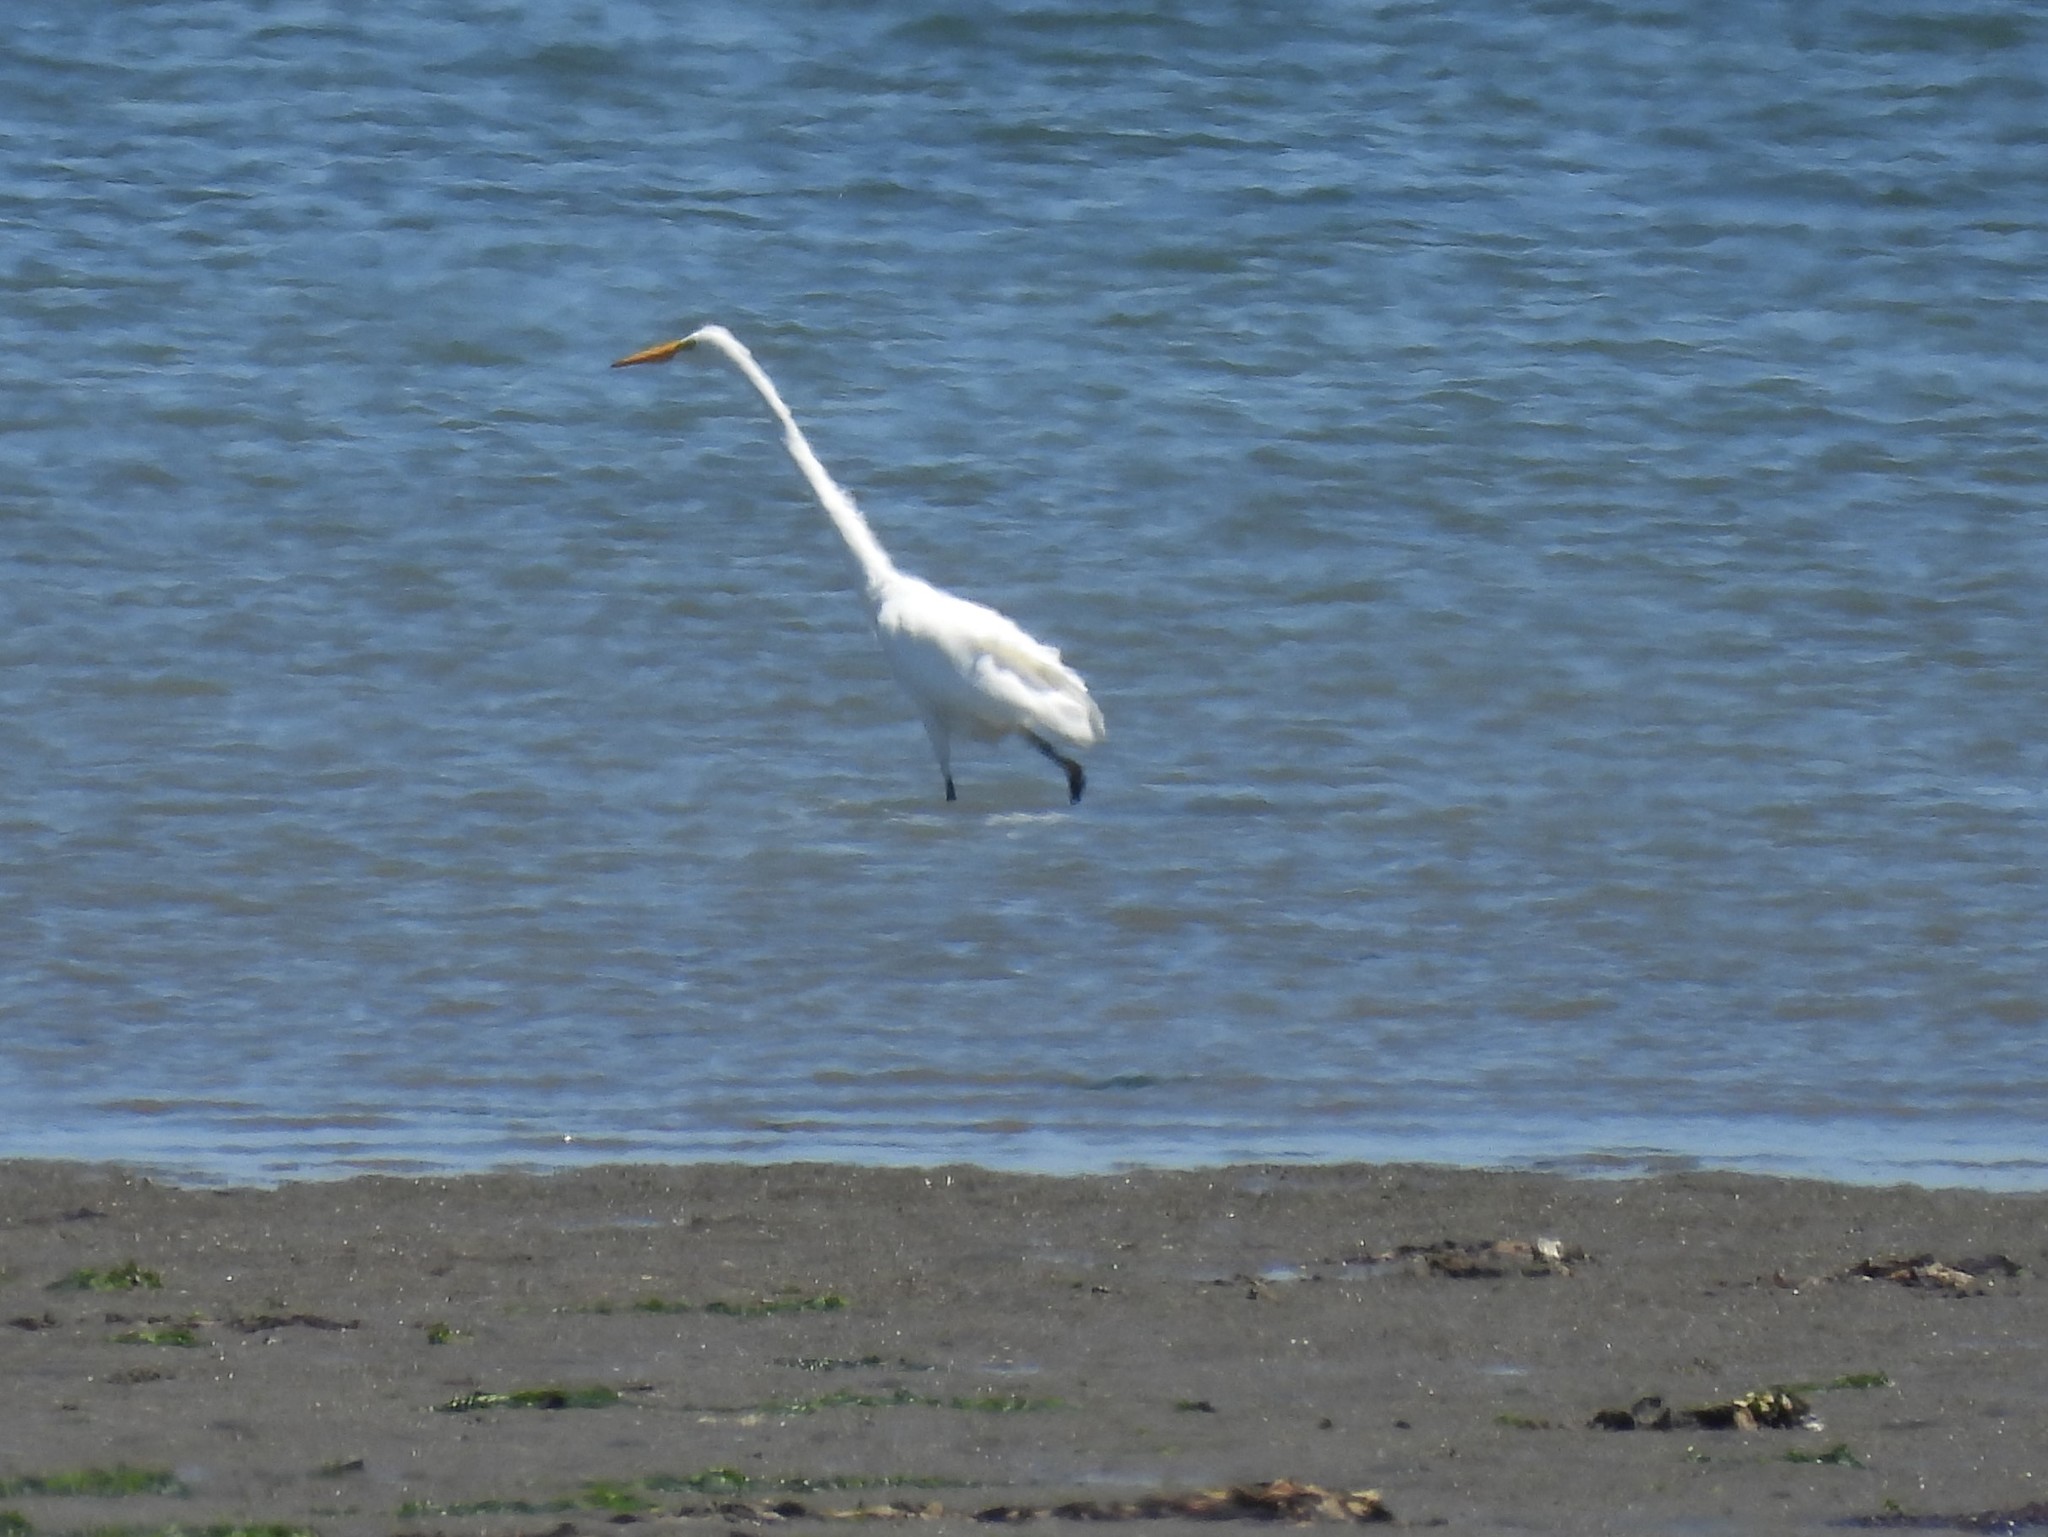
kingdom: Animalia
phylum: Chordata
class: Aves
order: Pelecaniformes
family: Ardeidae
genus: Ardea
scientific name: Ardea alba
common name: Great egret
